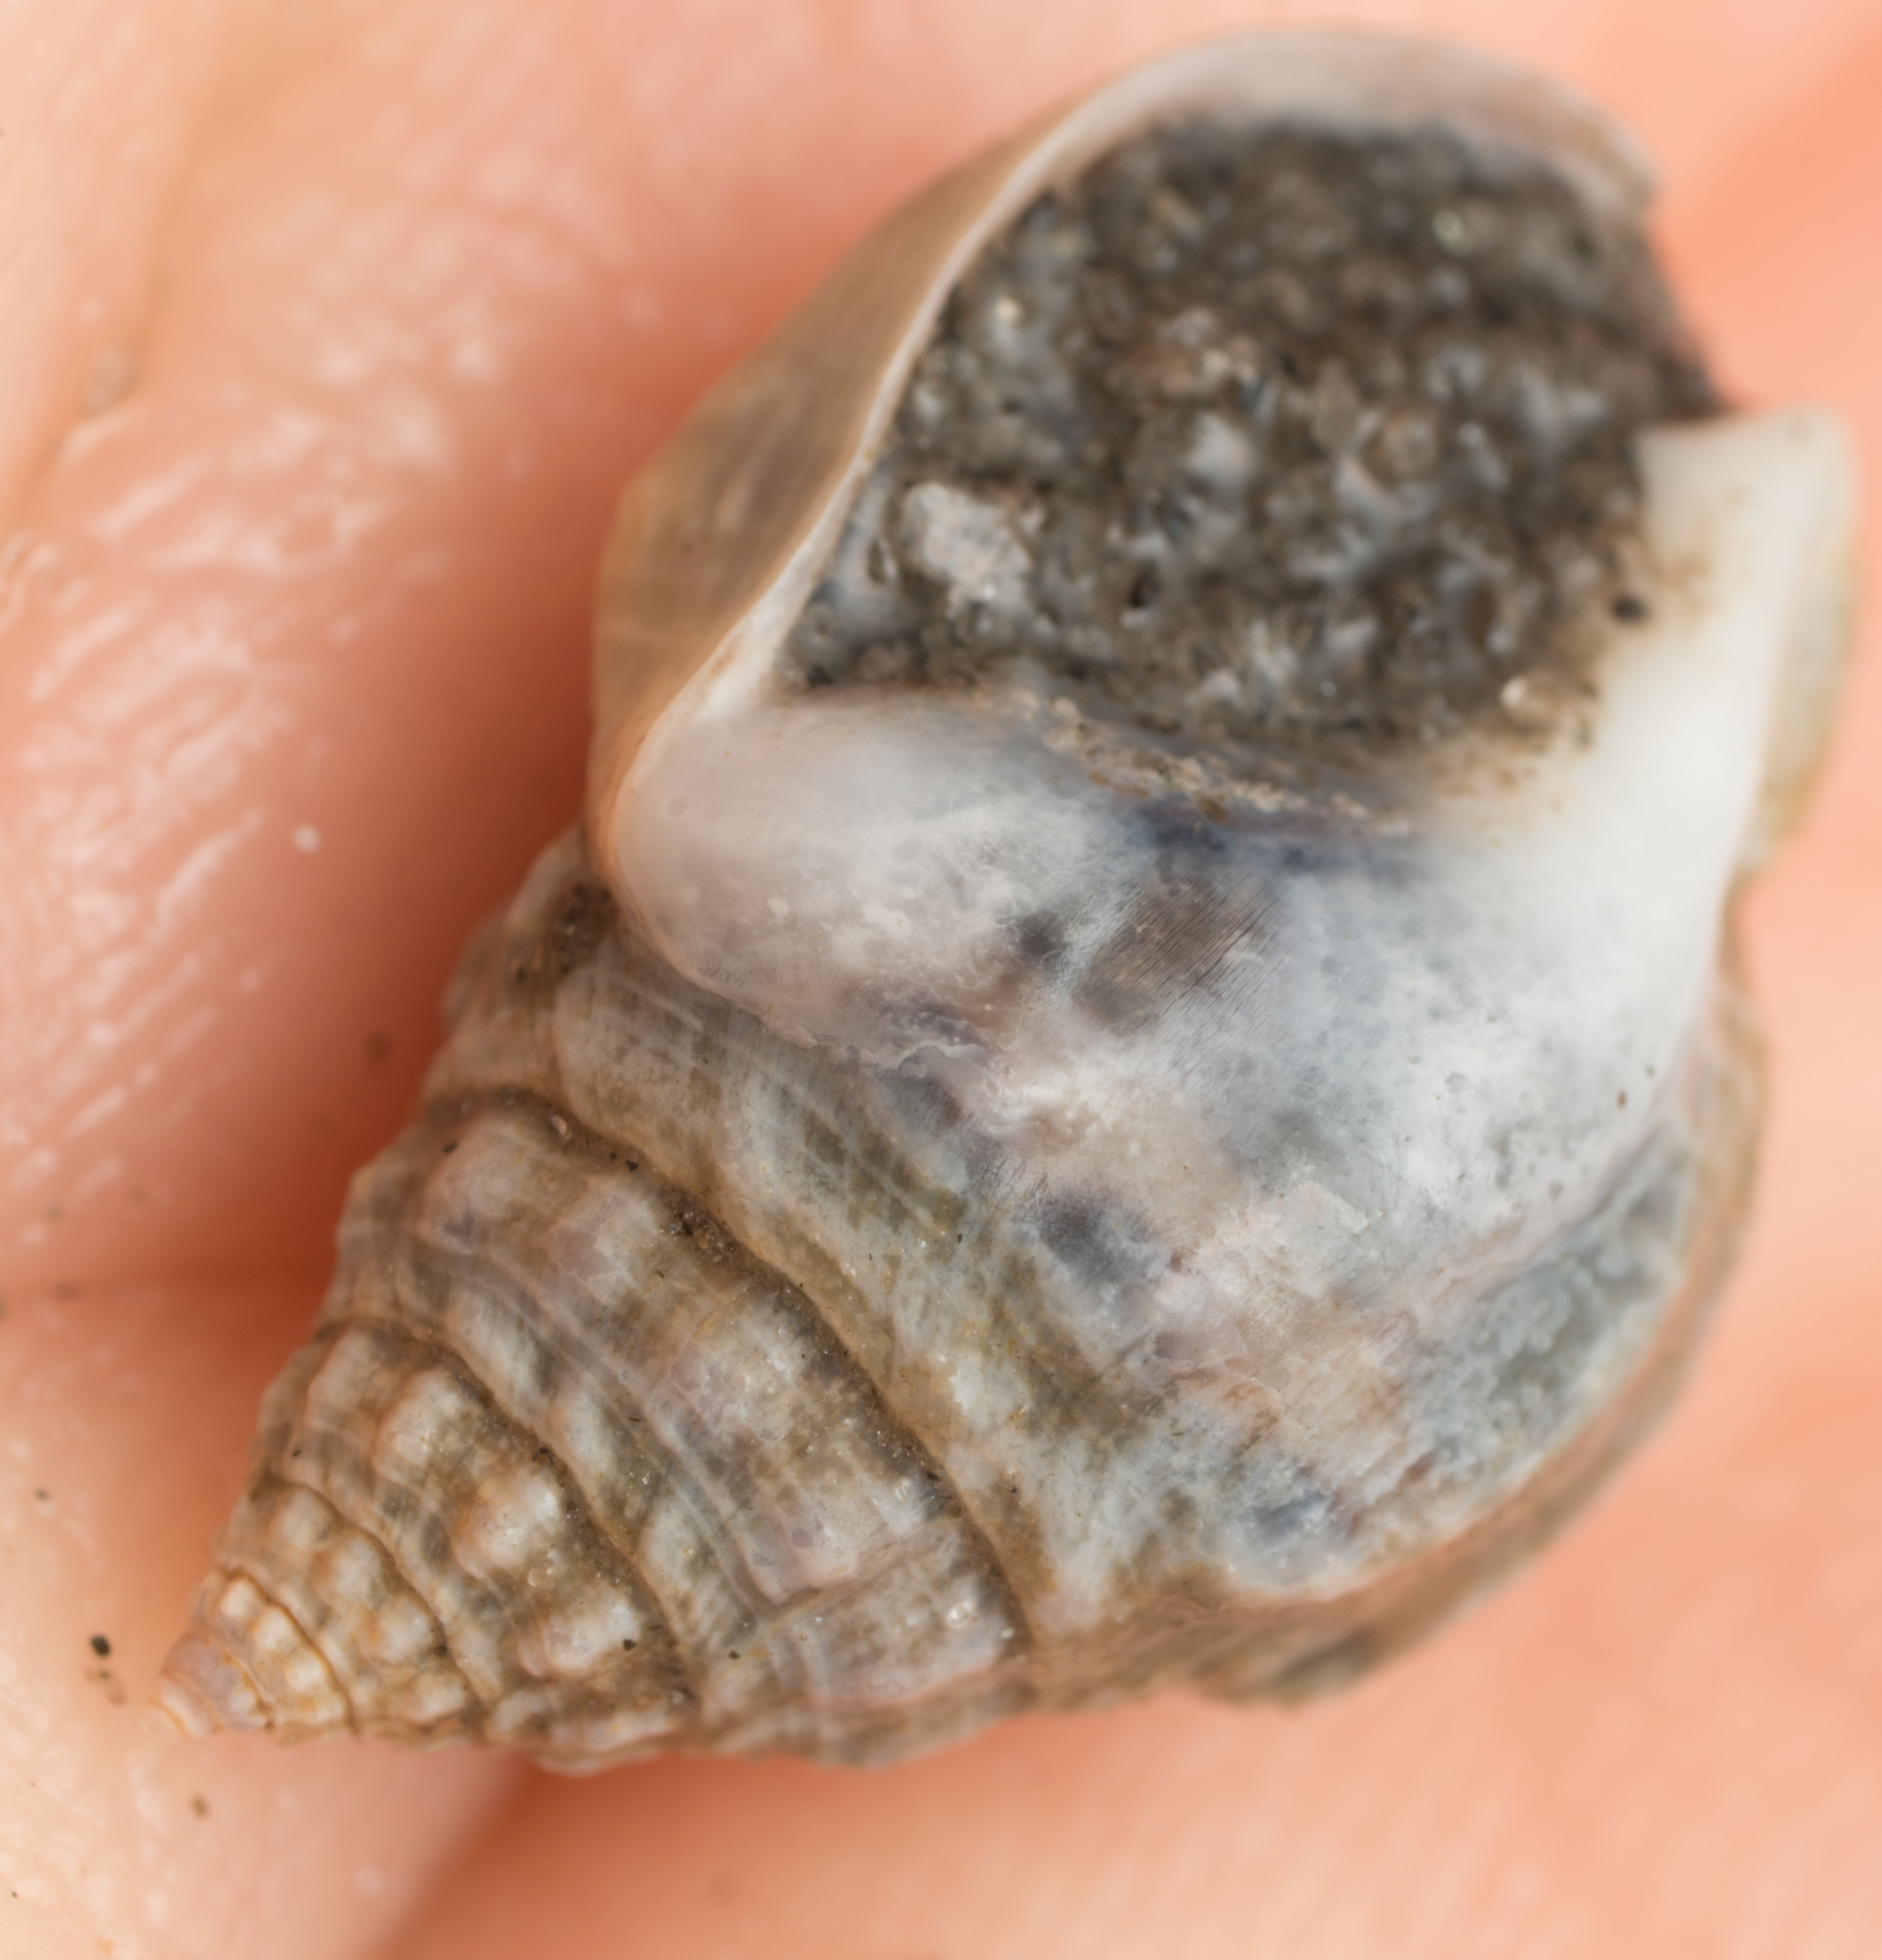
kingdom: Animalia
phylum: Mollusca
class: Gastropoda
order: Neogastropoda
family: Nassariidae
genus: Phrontis
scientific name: Phrontis tiarula
